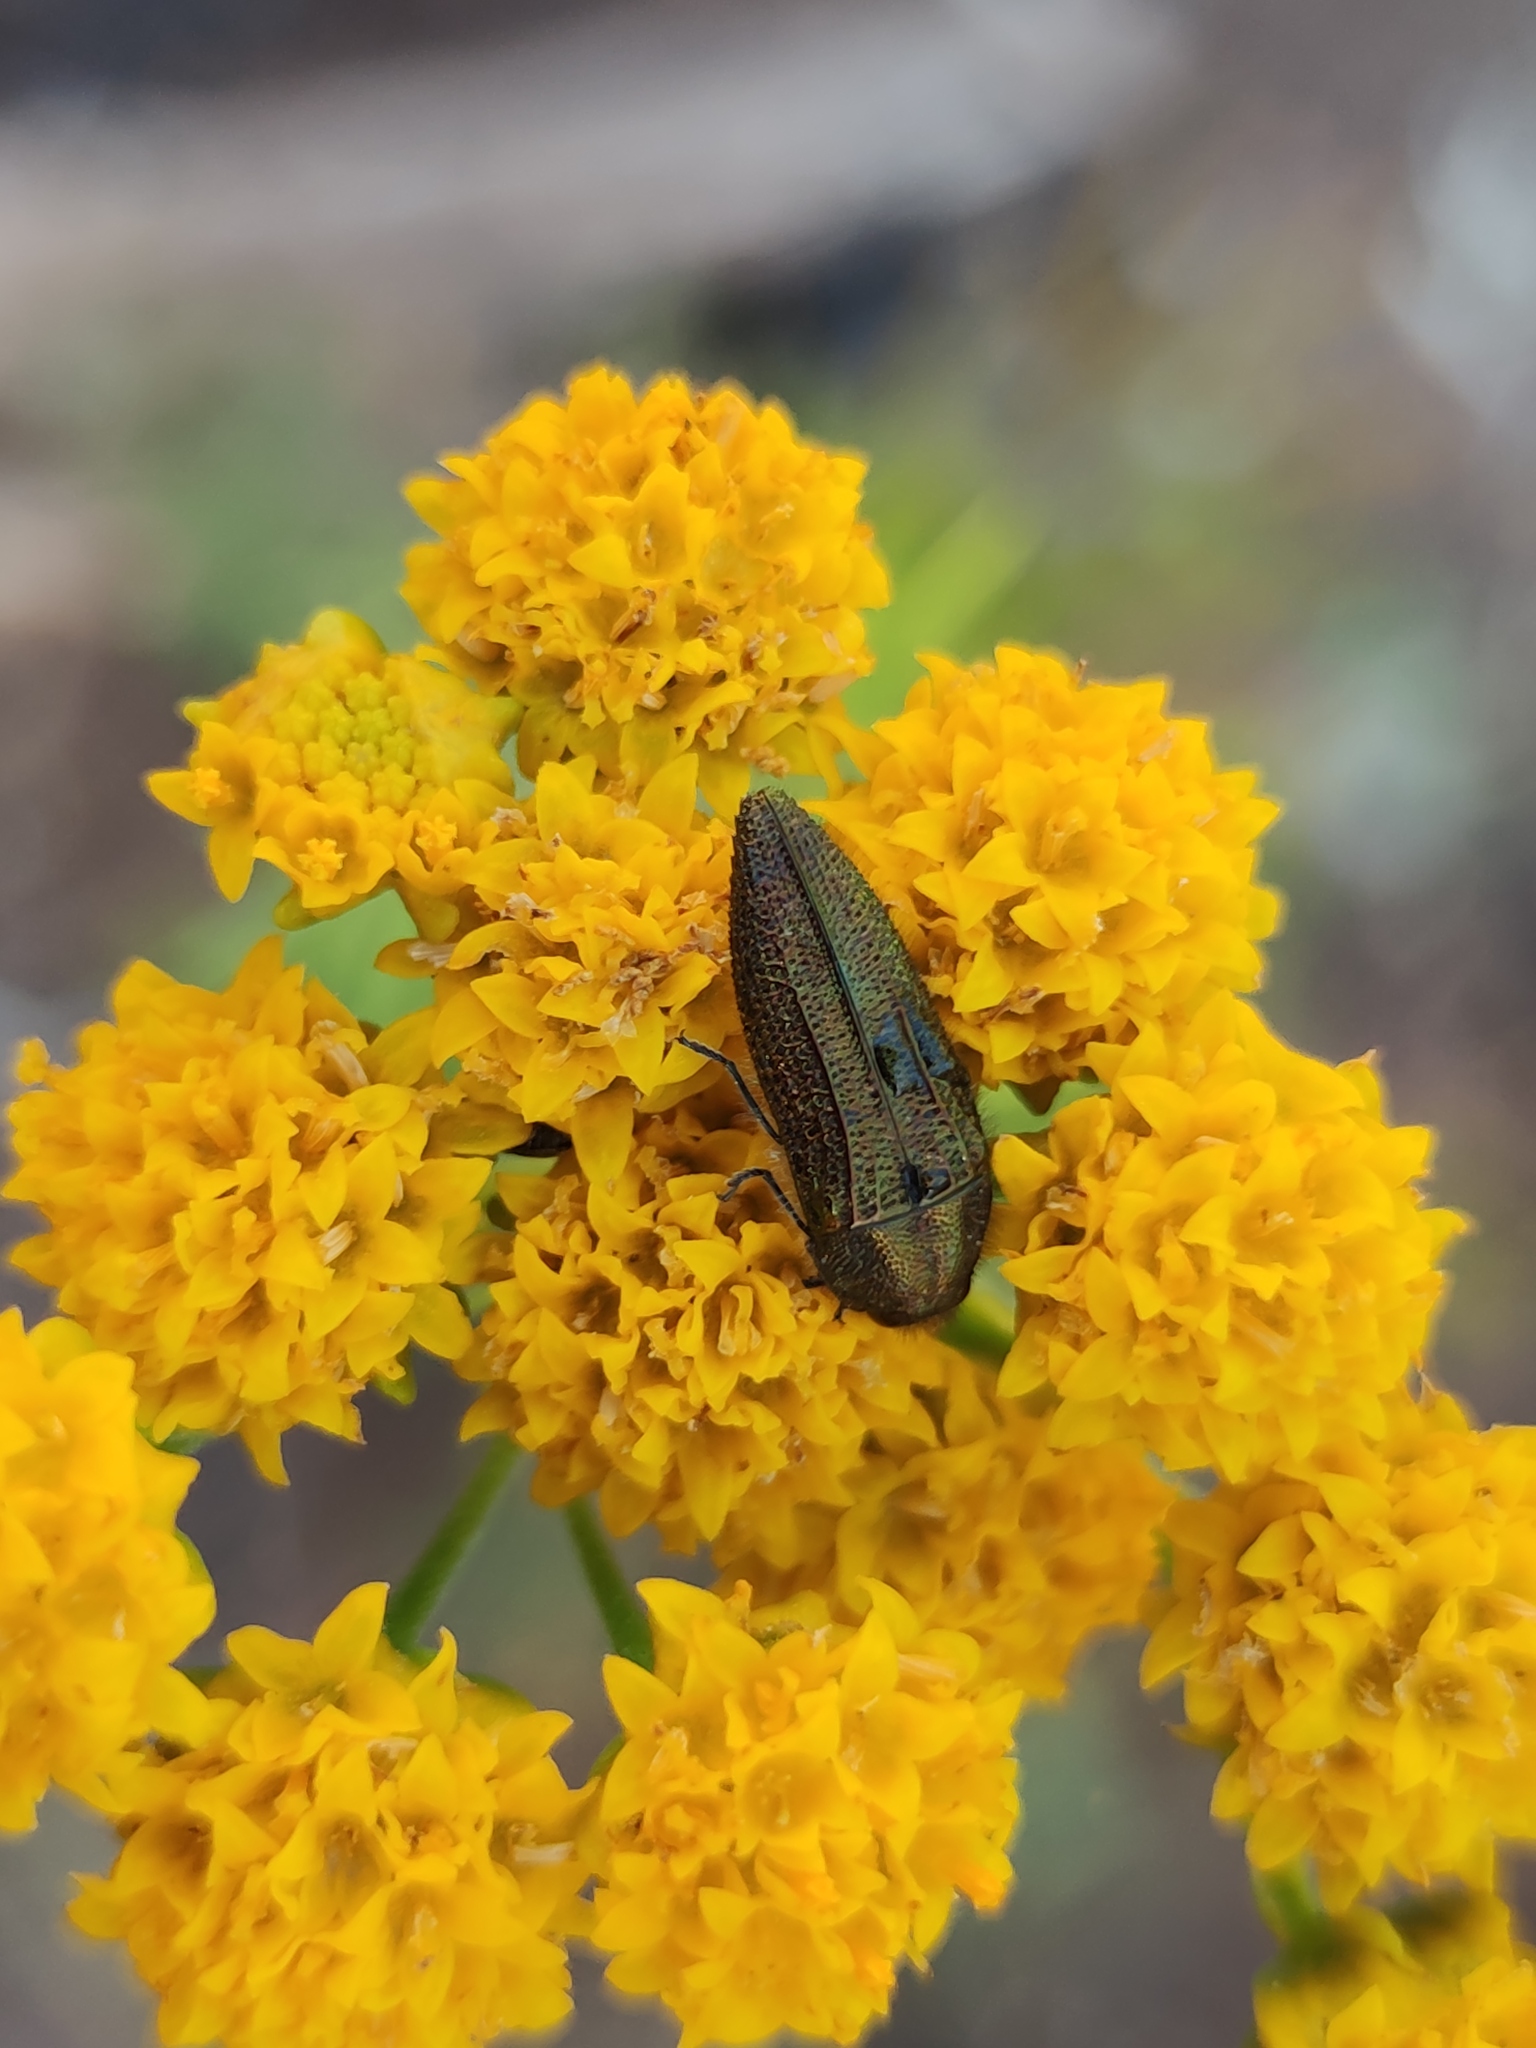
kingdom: Animalia
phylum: Arthropoda
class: Insecta
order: Coleoptera
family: Buprestidae
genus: Acmaeodera
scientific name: Acmaeodera resplendens
